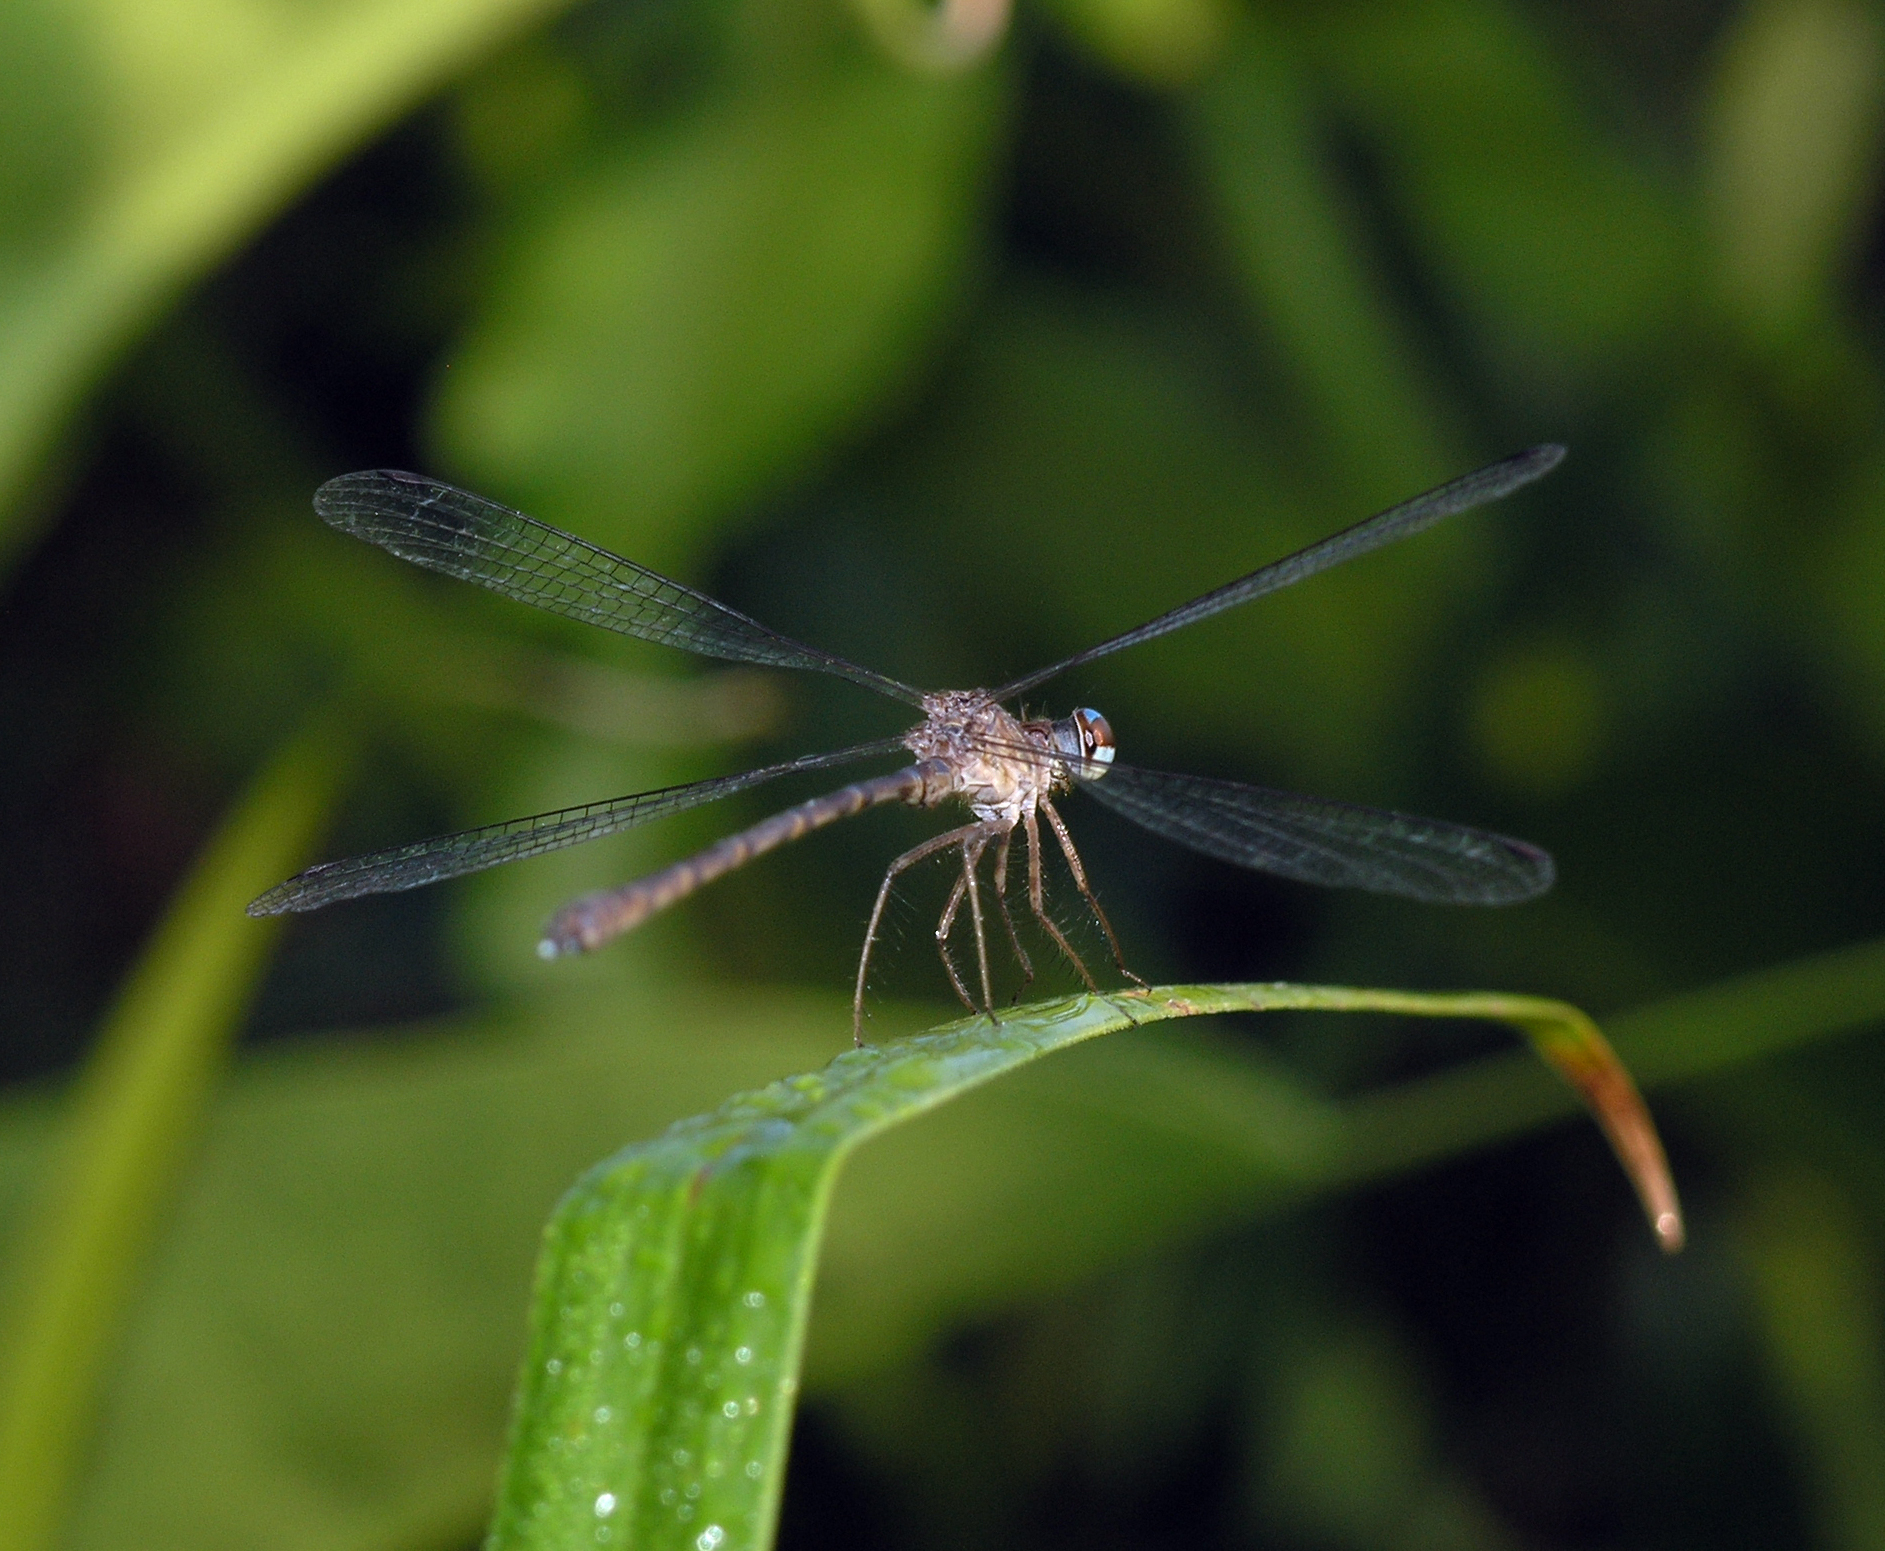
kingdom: Animalia
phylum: Arthropoda
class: Insecta
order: Odonata
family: Argiolestidae
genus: Podolestes
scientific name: Podolestes coomansi
